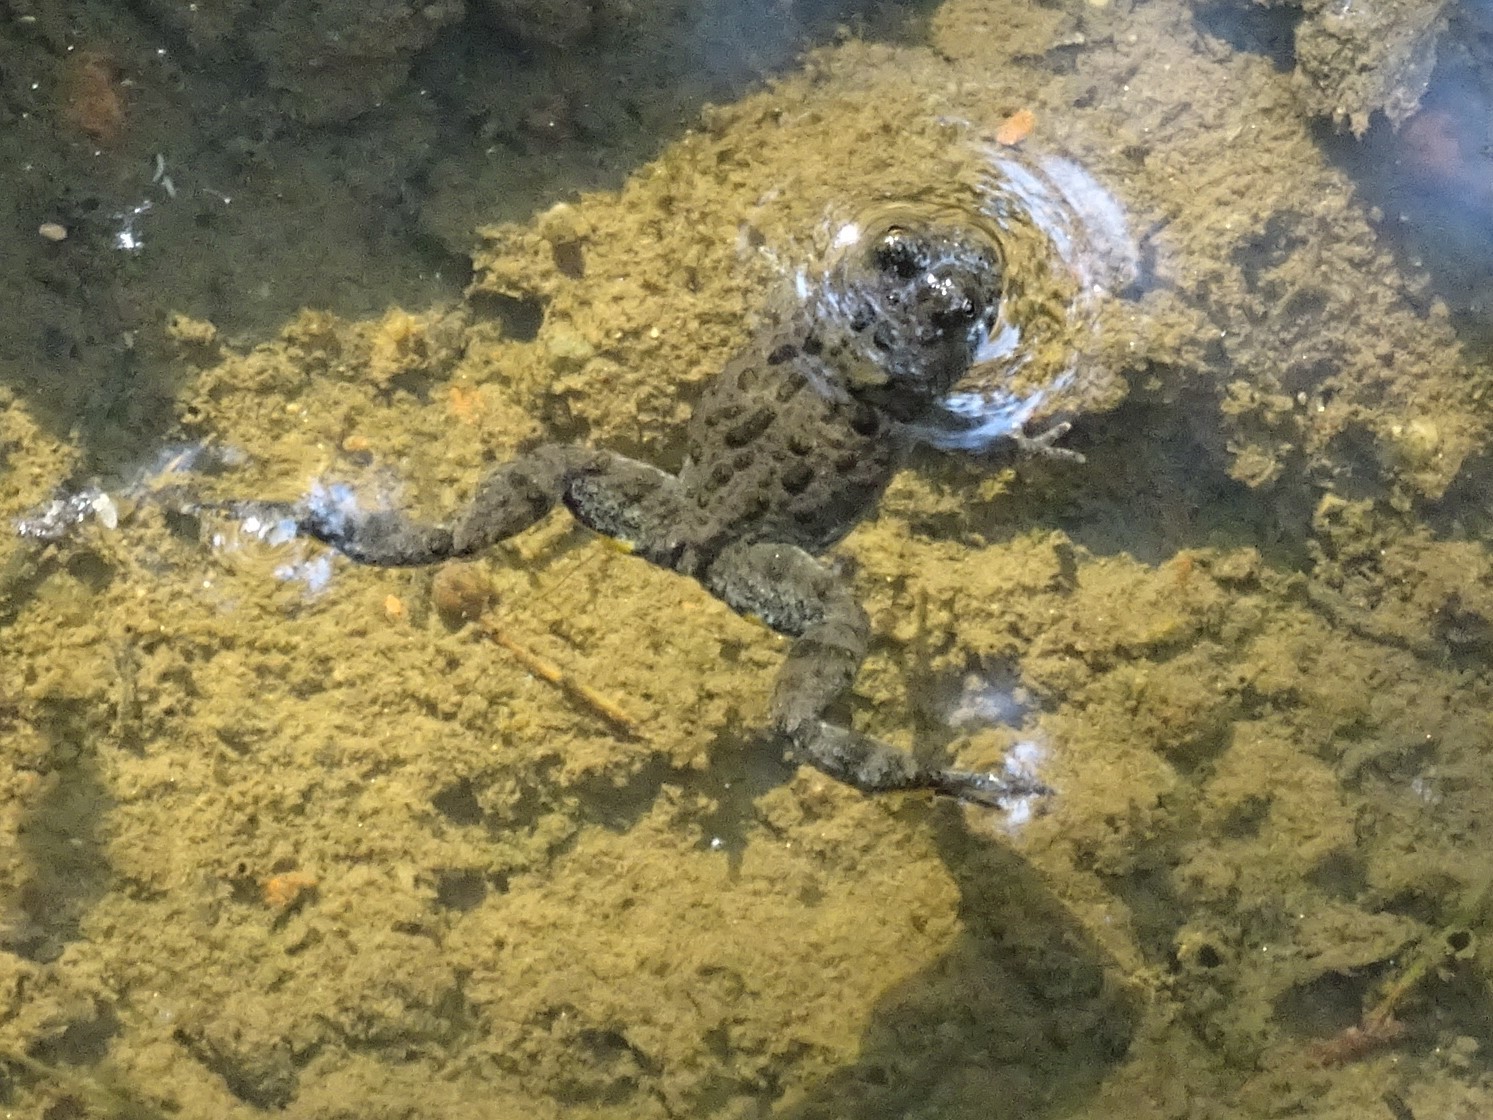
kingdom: Animalia
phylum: Chordata
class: Amphibia
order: Anura
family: Bombinatoridae
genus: Bombina
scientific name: Bombina variegata
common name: Yellow-bellied toad
